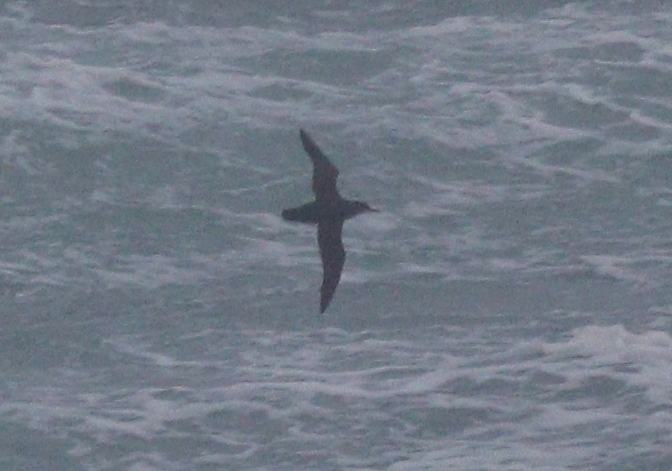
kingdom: Animalia
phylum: Chordata
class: Aves
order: Procellariiformes
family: Procellariidae
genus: Puffinus
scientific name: Puffinus mauretanicus
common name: Balearic shearwater
